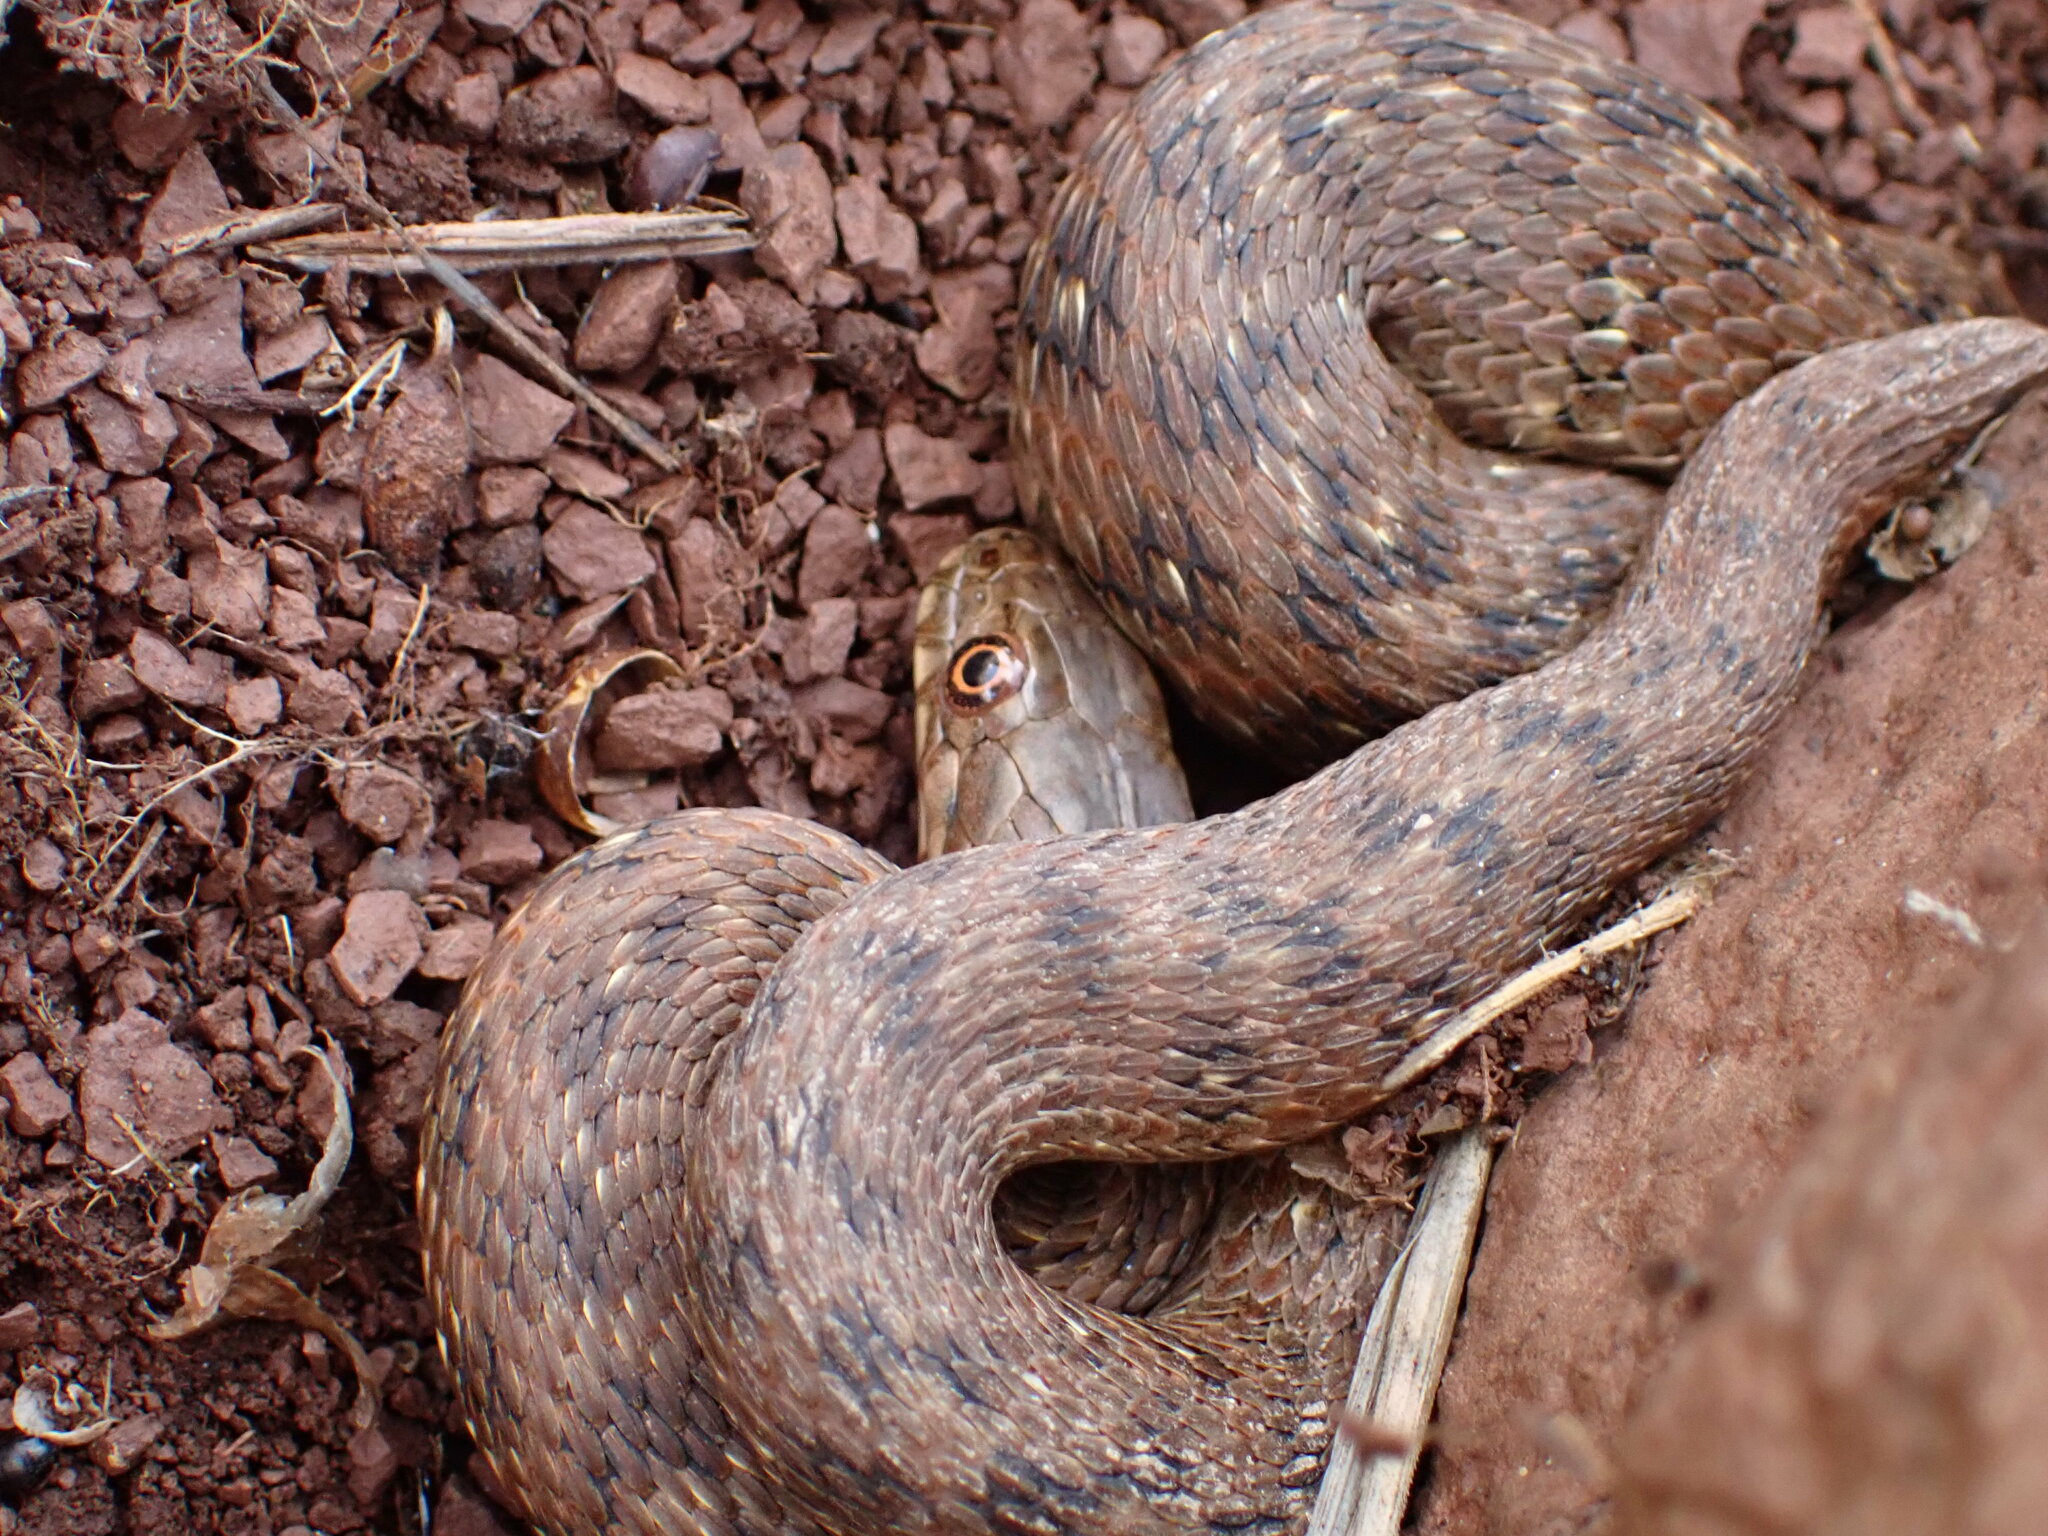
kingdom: Animalia
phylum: Chordata
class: Squamata
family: Colubridae
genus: Natrix
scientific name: Natrix maura
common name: Viperine water snake
